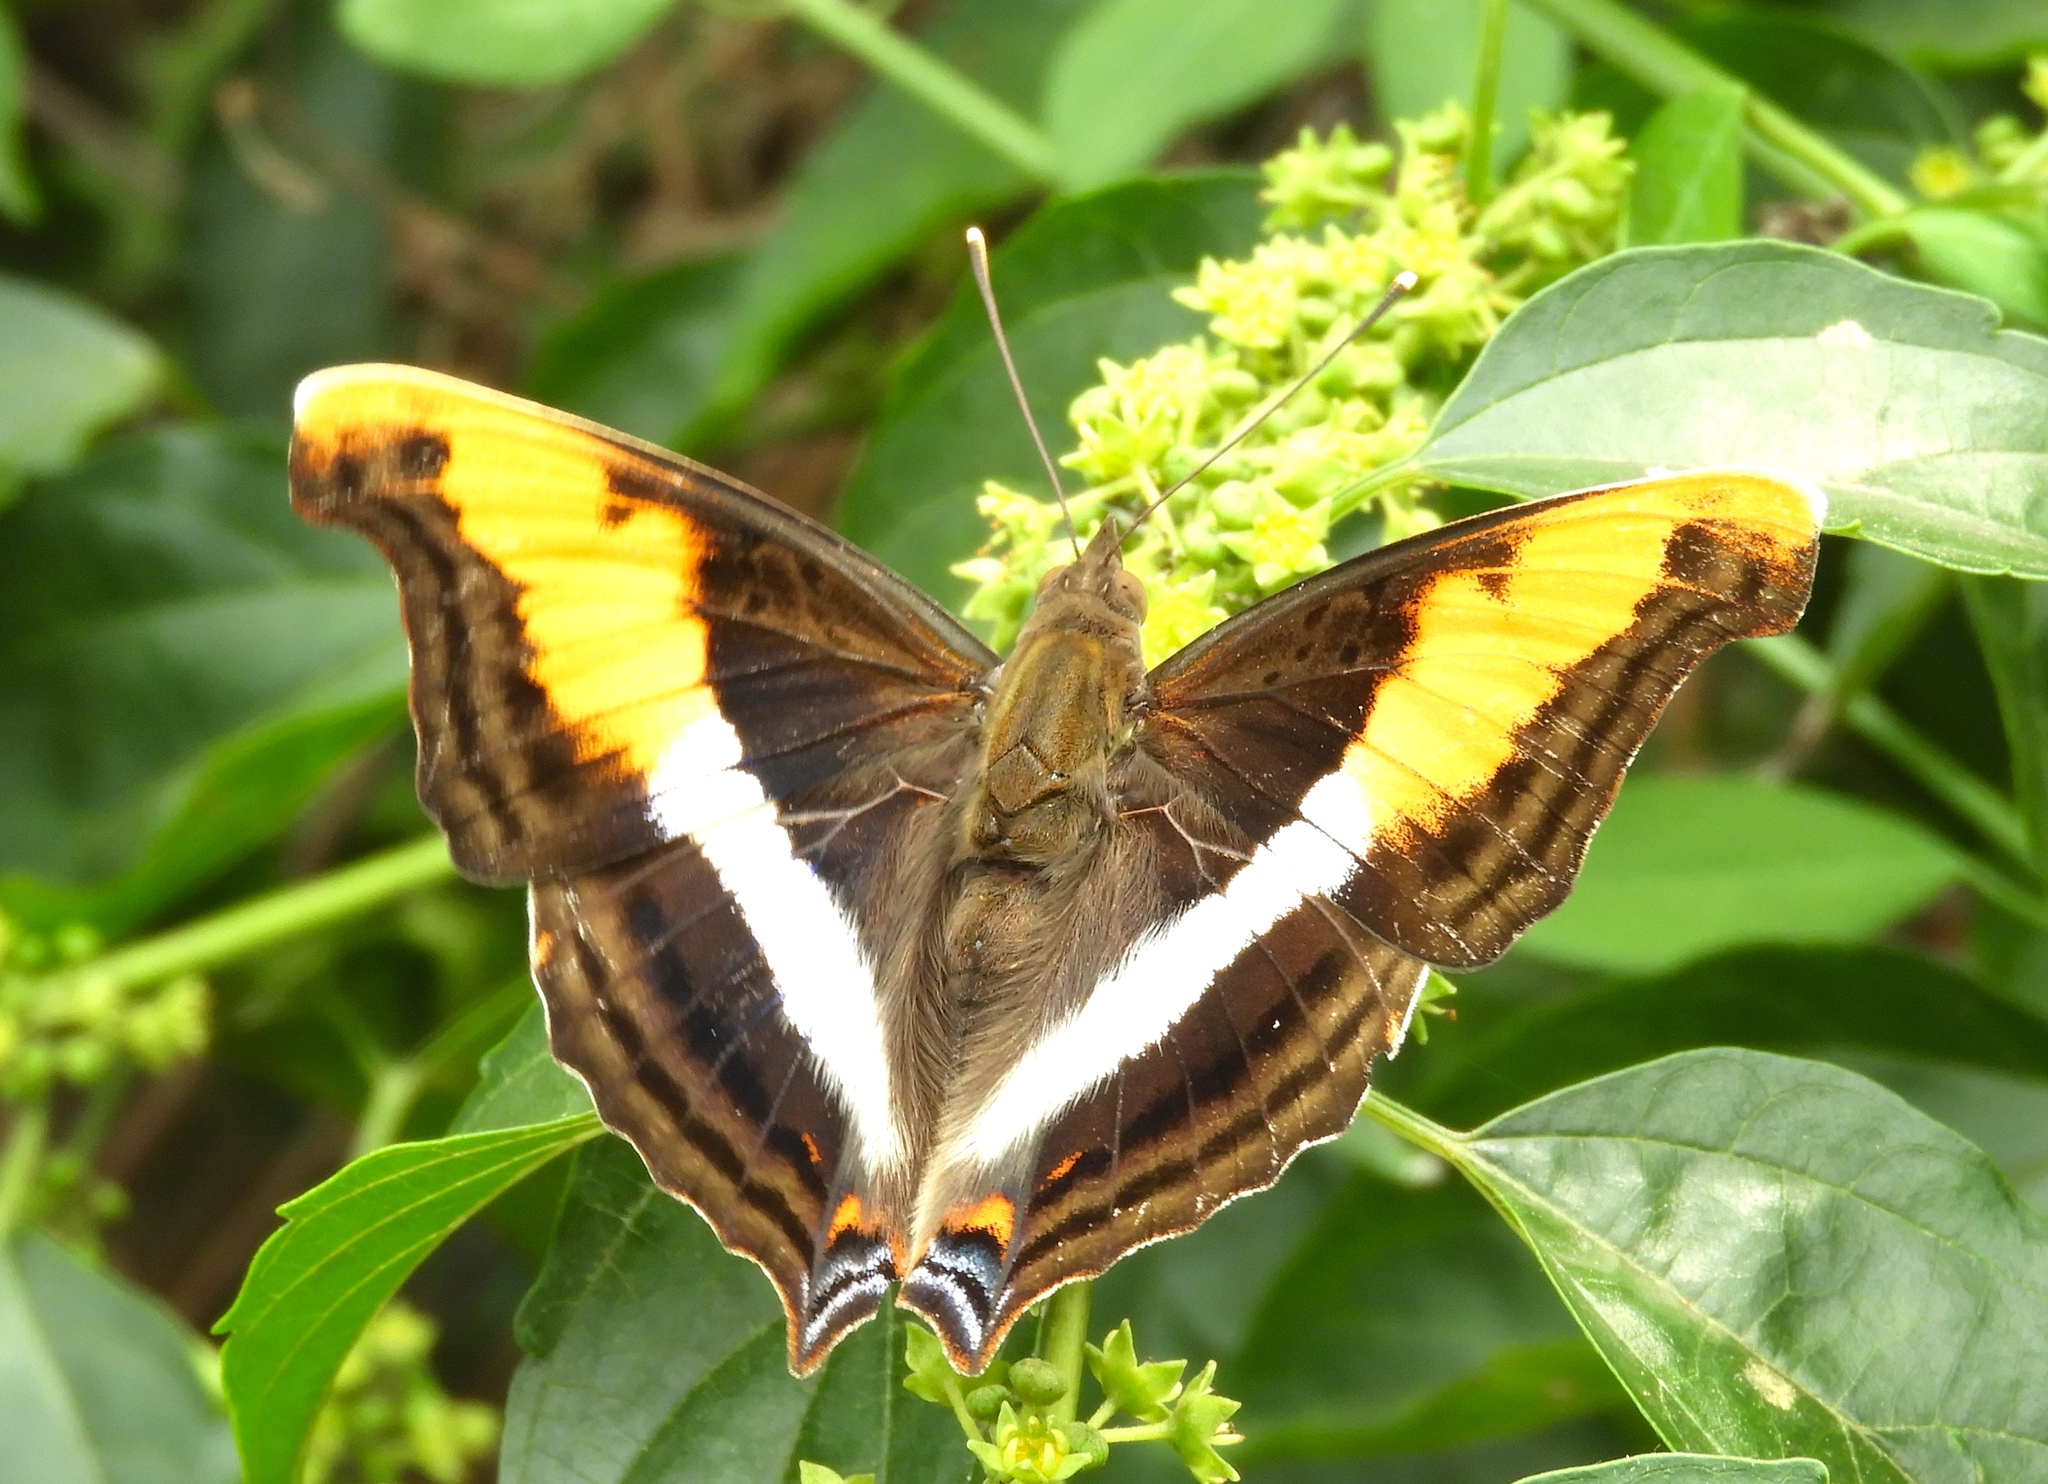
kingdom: Animalia
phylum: Arthropoda
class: Insecta
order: Lepidoptera
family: Nymphalidae
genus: Doxocopa
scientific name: Doxocopa laure
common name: Silver emperor
